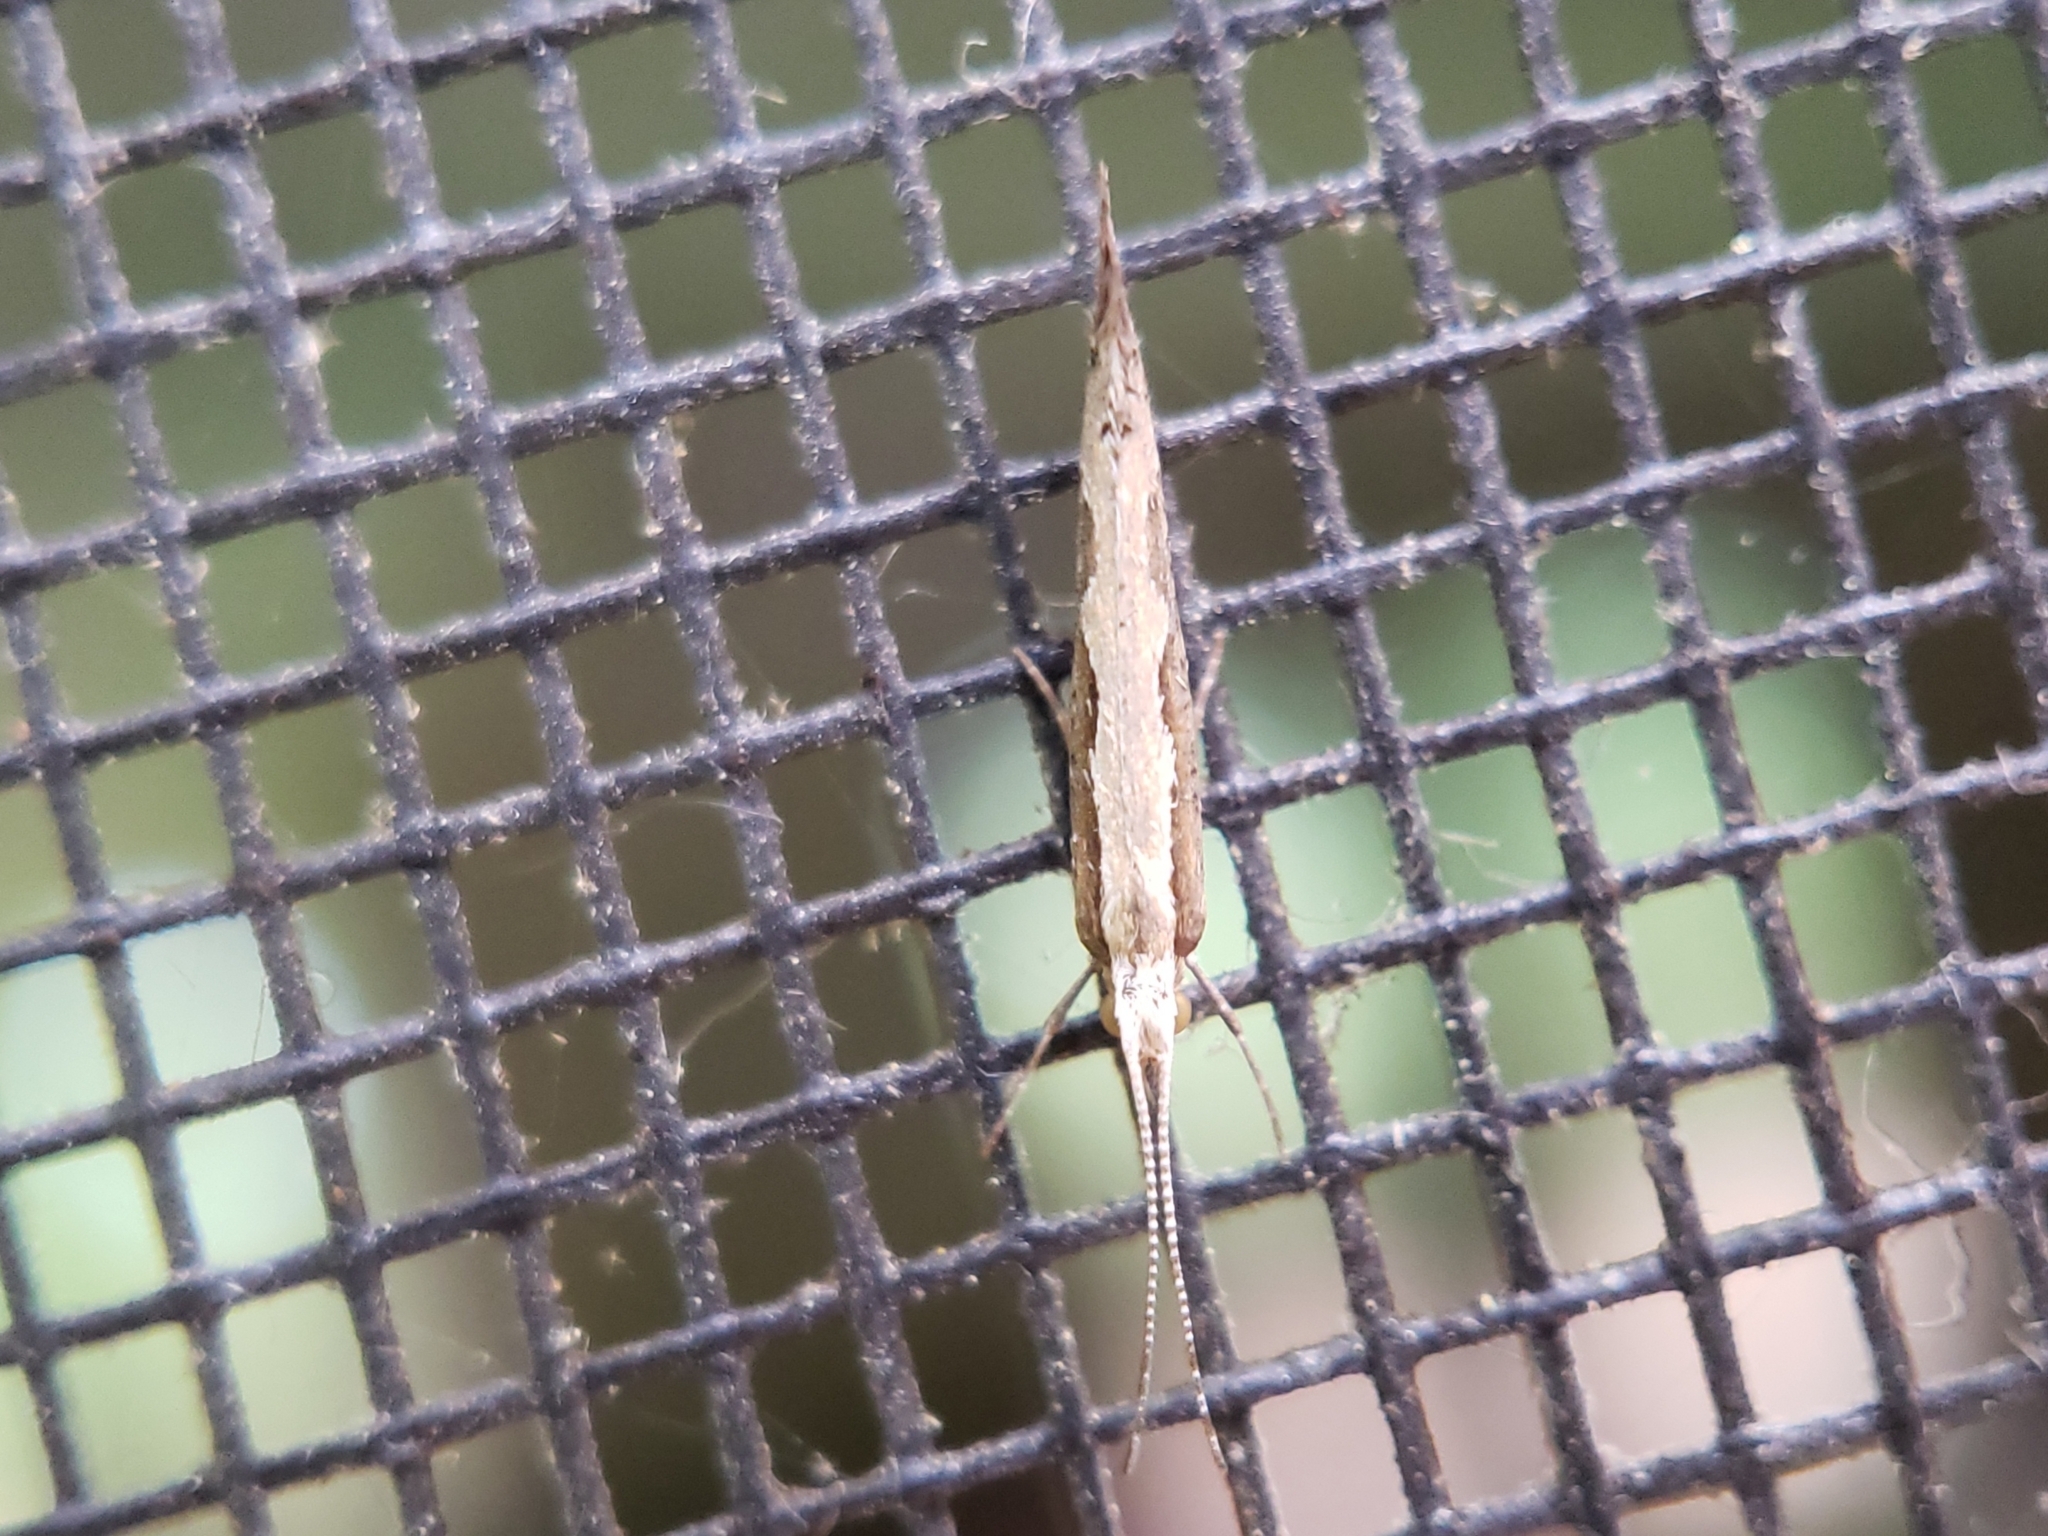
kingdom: Animalia
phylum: Arthropoda
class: Insecta
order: Lepidoptera
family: Plutellidae
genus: Plutella
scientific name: Plutella xylostella
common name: Diamond-back moth
